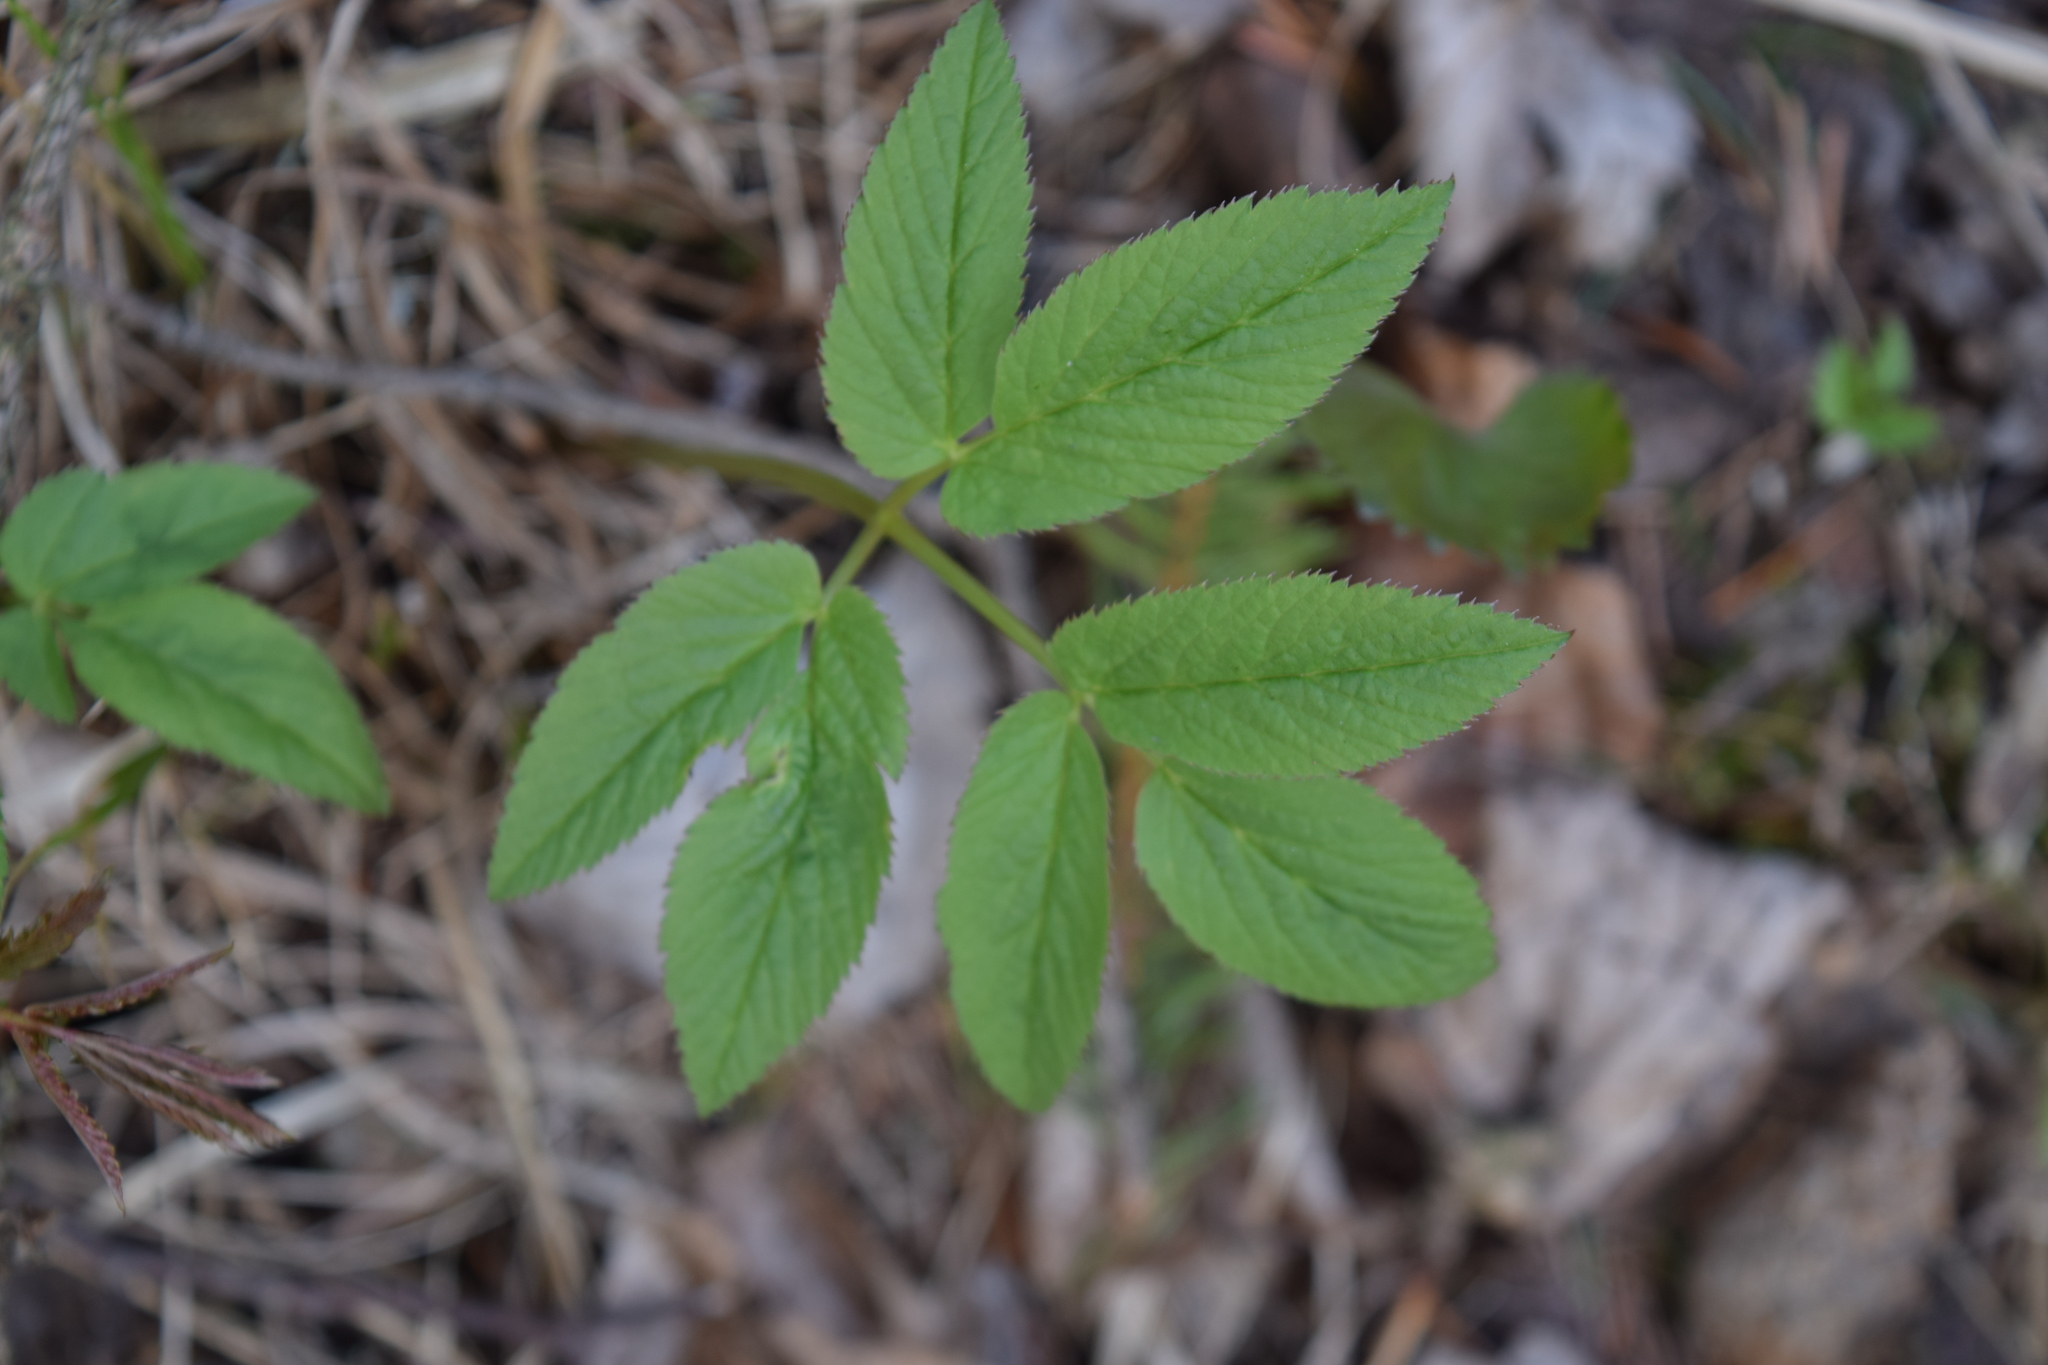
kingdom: Plantae
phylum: Tracheophyta
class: Magnoliopsida
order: Apiales
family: Apiaceae
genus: Aegopodium
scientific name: Aegopodium podagraria
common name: Ground-elder
